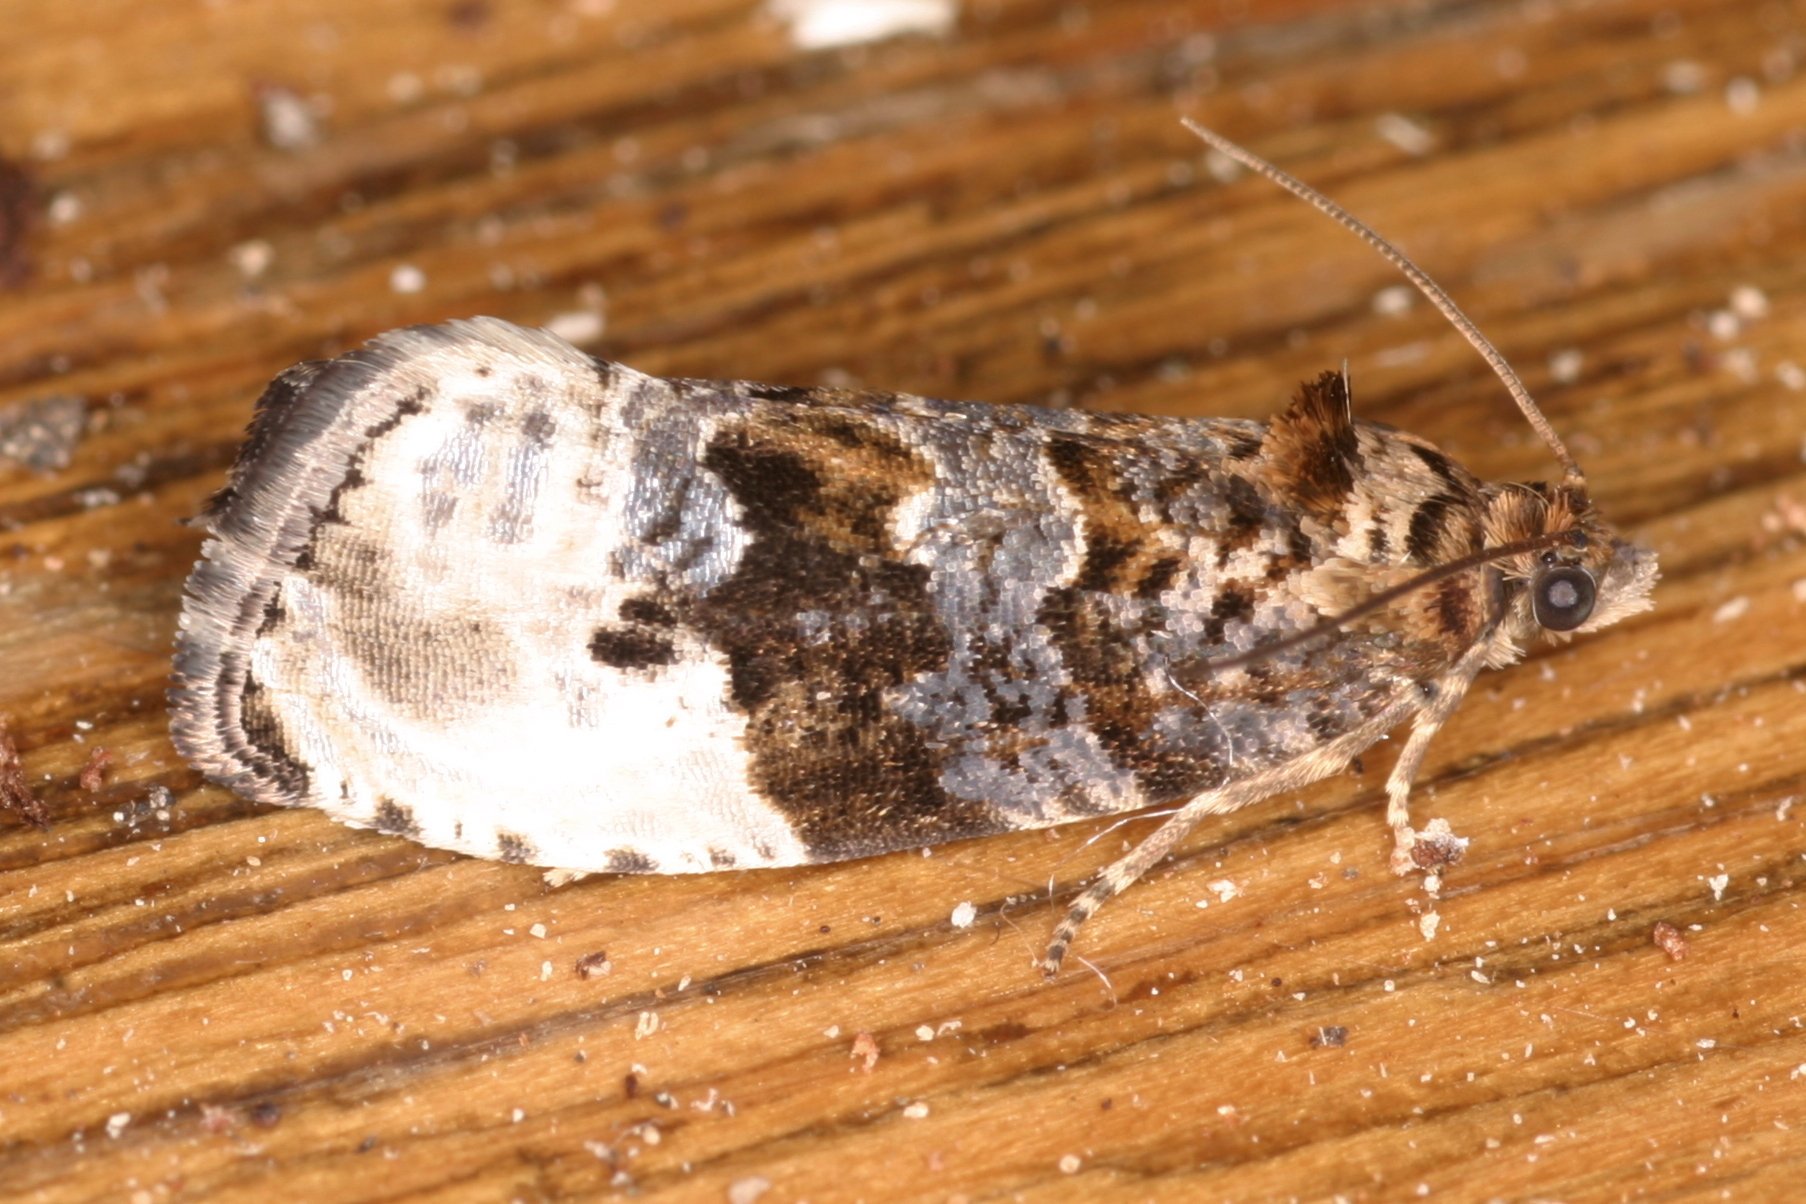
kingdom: Animalia
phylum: Arthropoda
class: Insecta
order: Lepidoptera
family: Tortricidae
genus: Hedya
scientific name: Hedya nubiferana
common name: Marbled orchard tortrix
